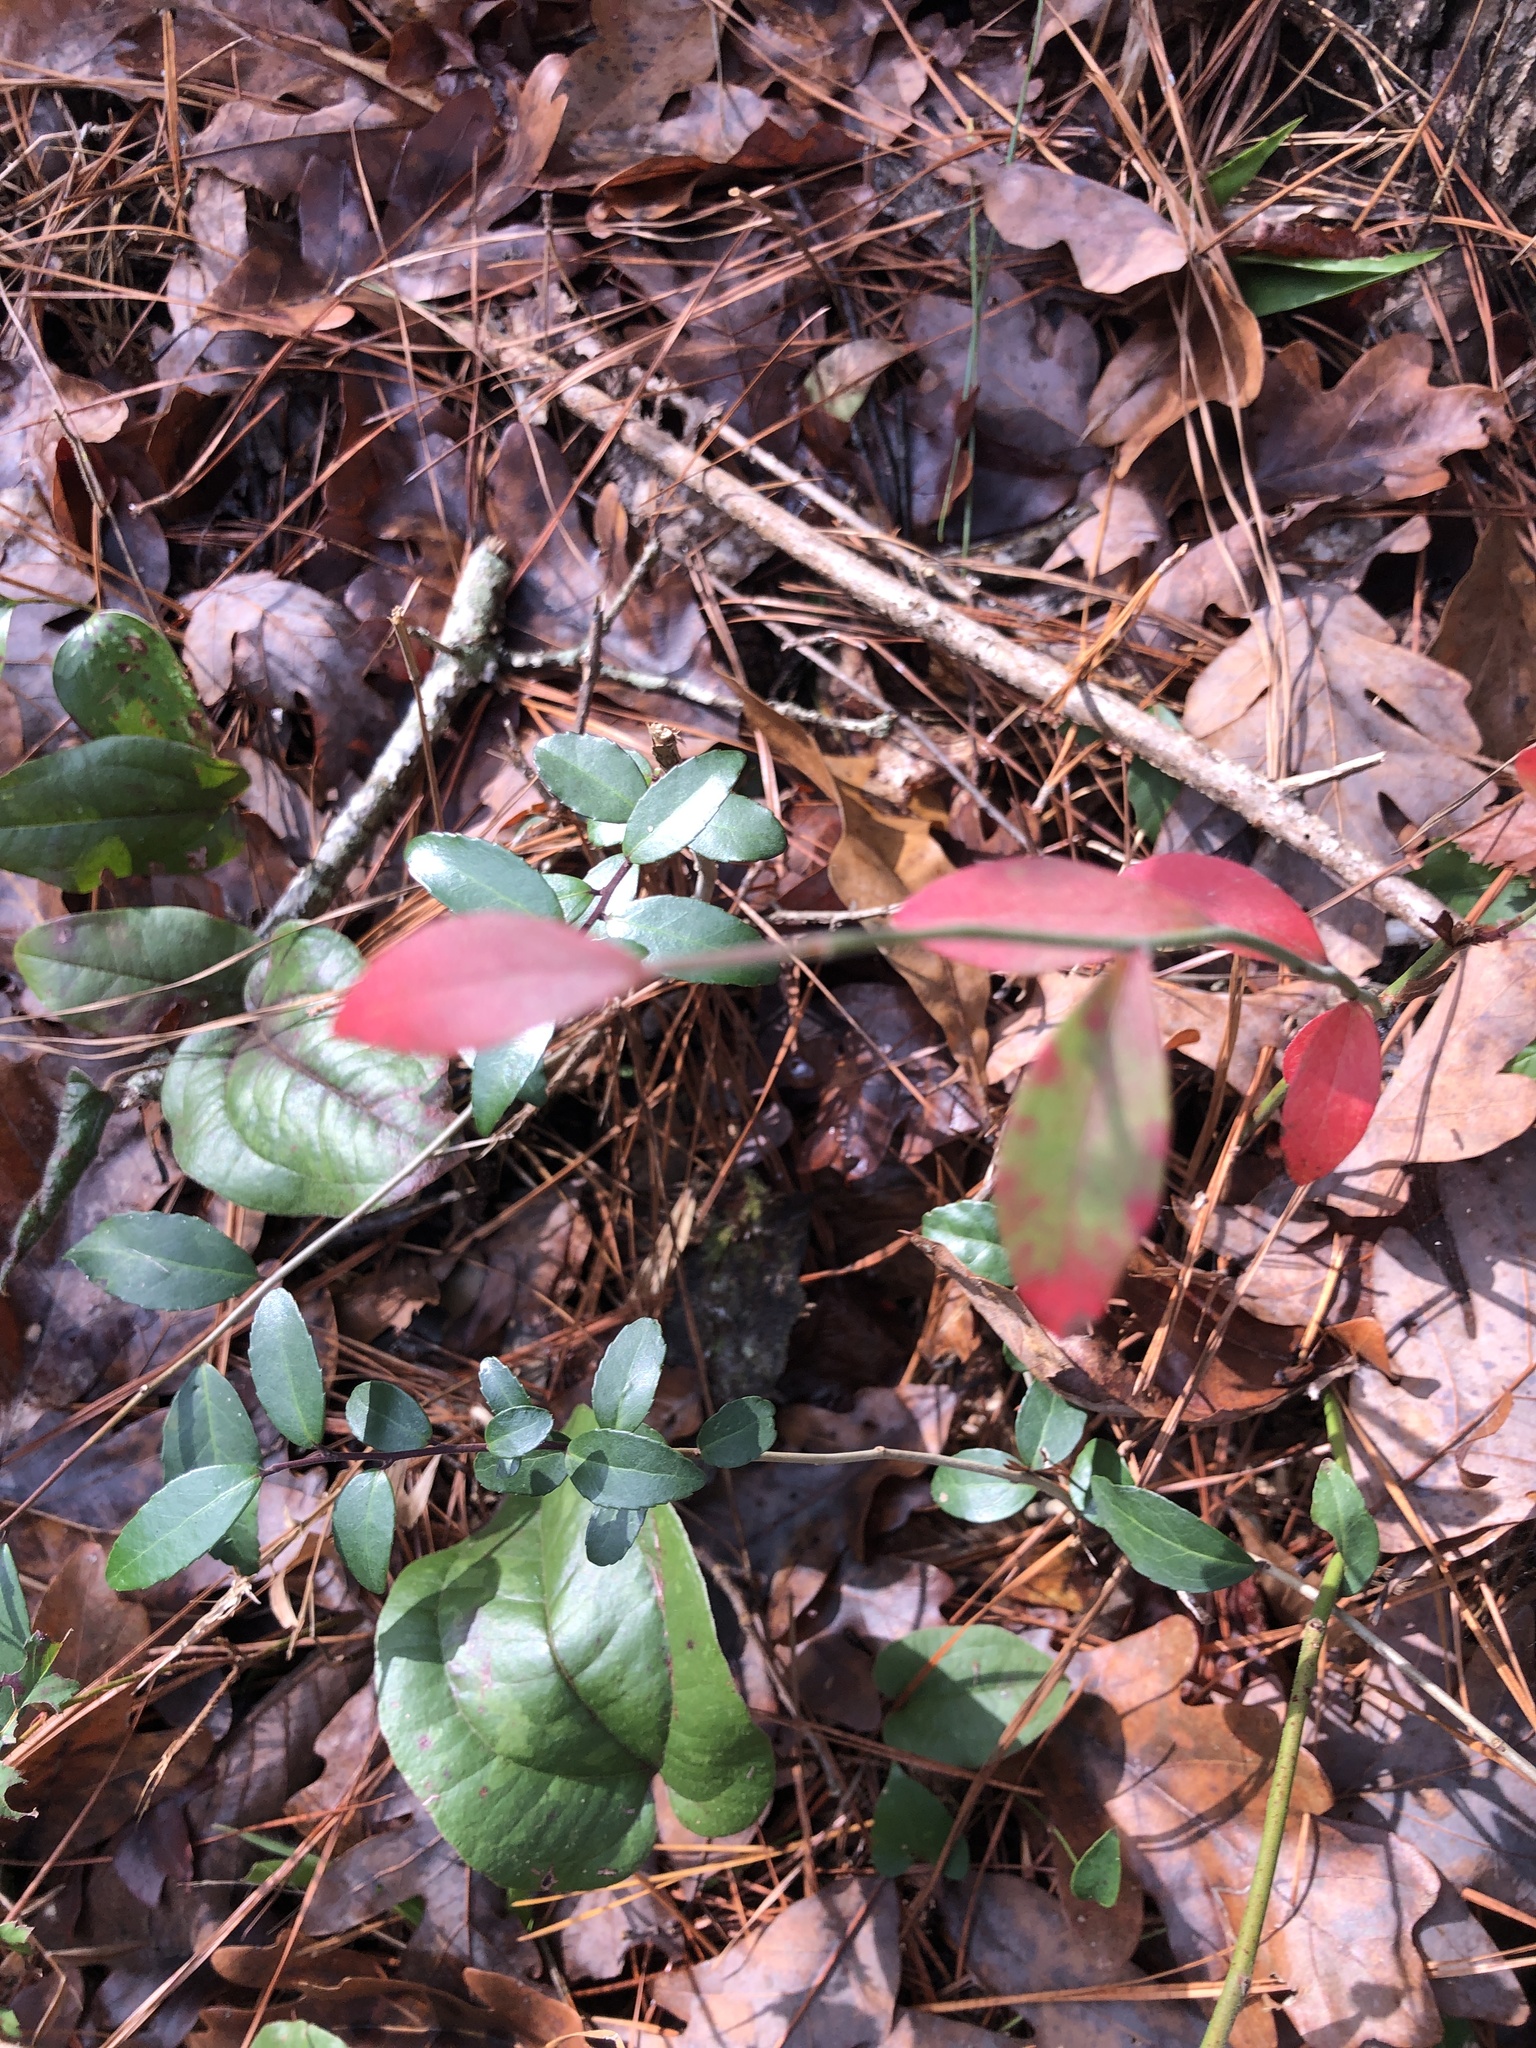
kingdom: Plantae
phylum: Tracheophyta
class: Magnoliopsida
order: Aquifoliales
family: Aquifoliaceae
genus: Ilex
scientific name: Ilex vomitoria
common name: Yaupon holly
